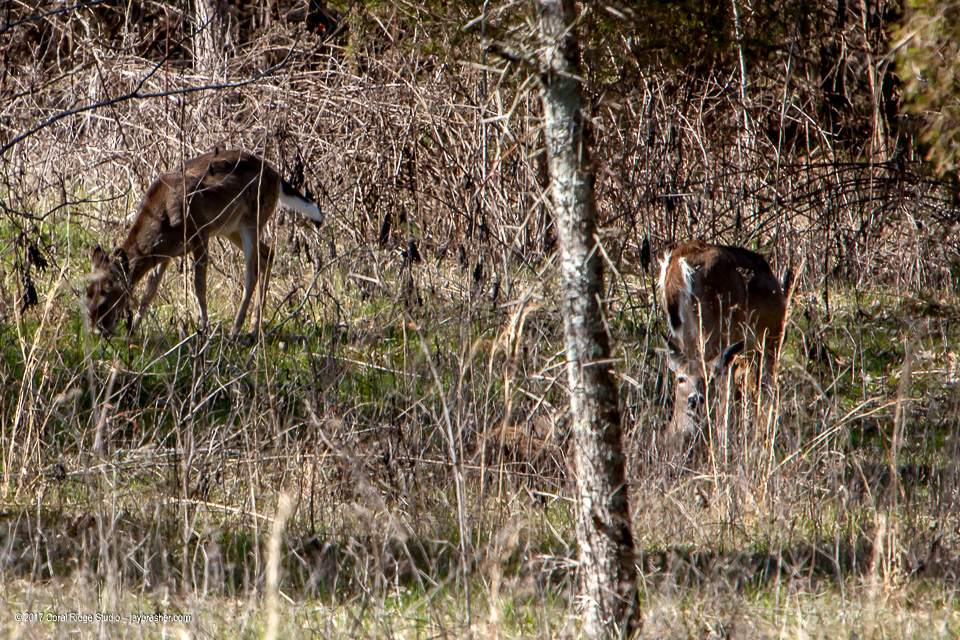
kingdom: Animalia
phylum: Chordata
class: Mammalia
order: Artiodactyla
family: Cervidae
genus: Odocoileus
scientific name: Odocoileus virginianus
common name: White-tailed deer
